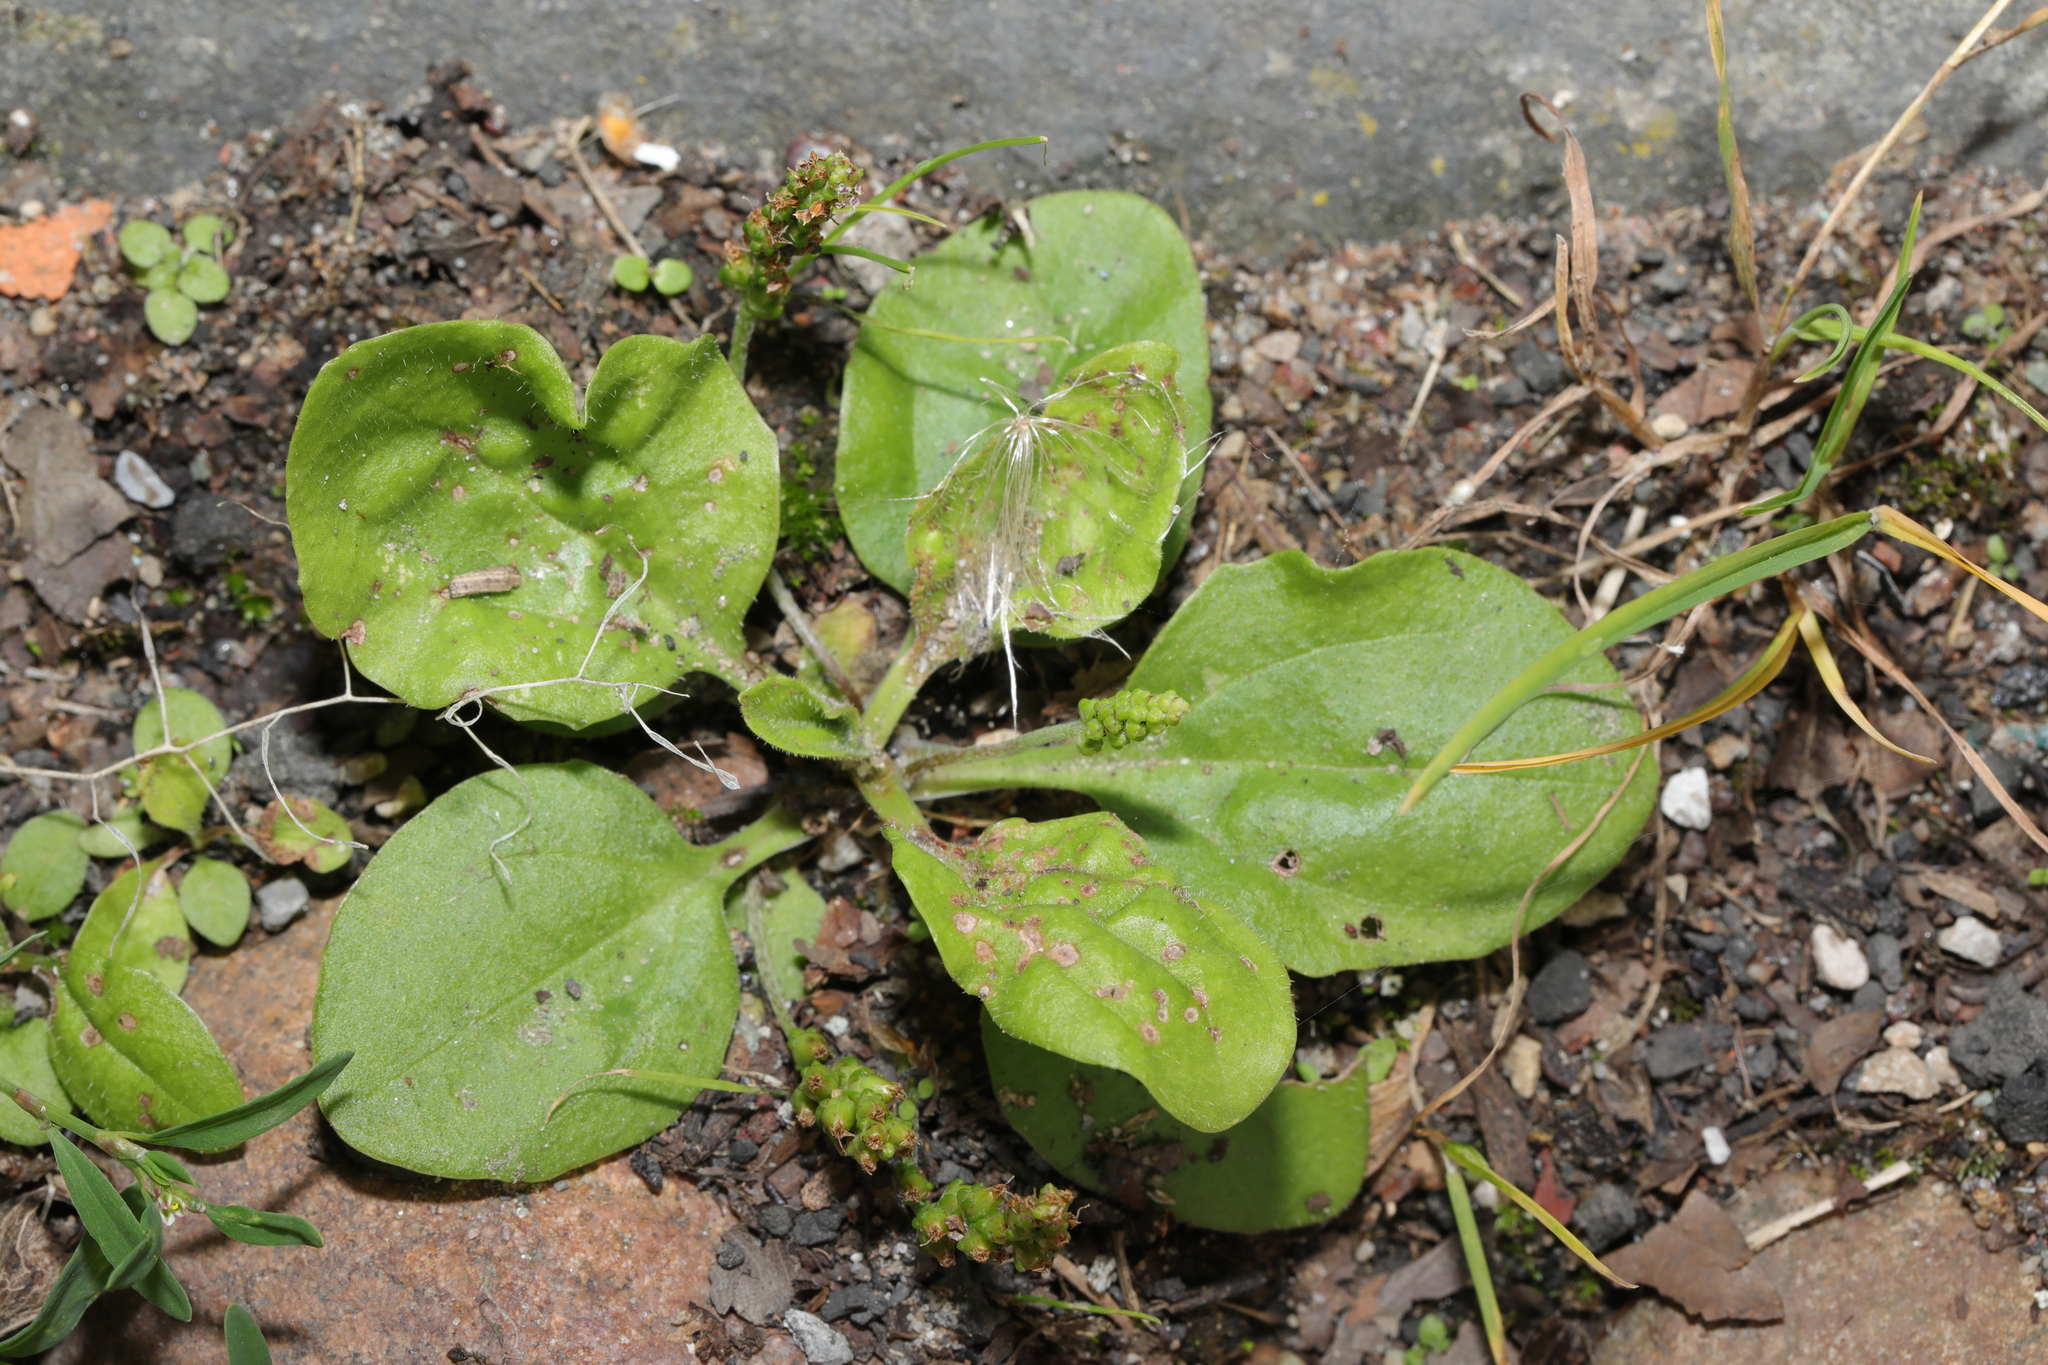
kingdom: Plantae
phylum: Tracheophyta
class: Magnoliopsida
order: Lamiales
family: Plantaginaceae
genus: Plantago
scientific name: Plantago major
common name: Common plantain
